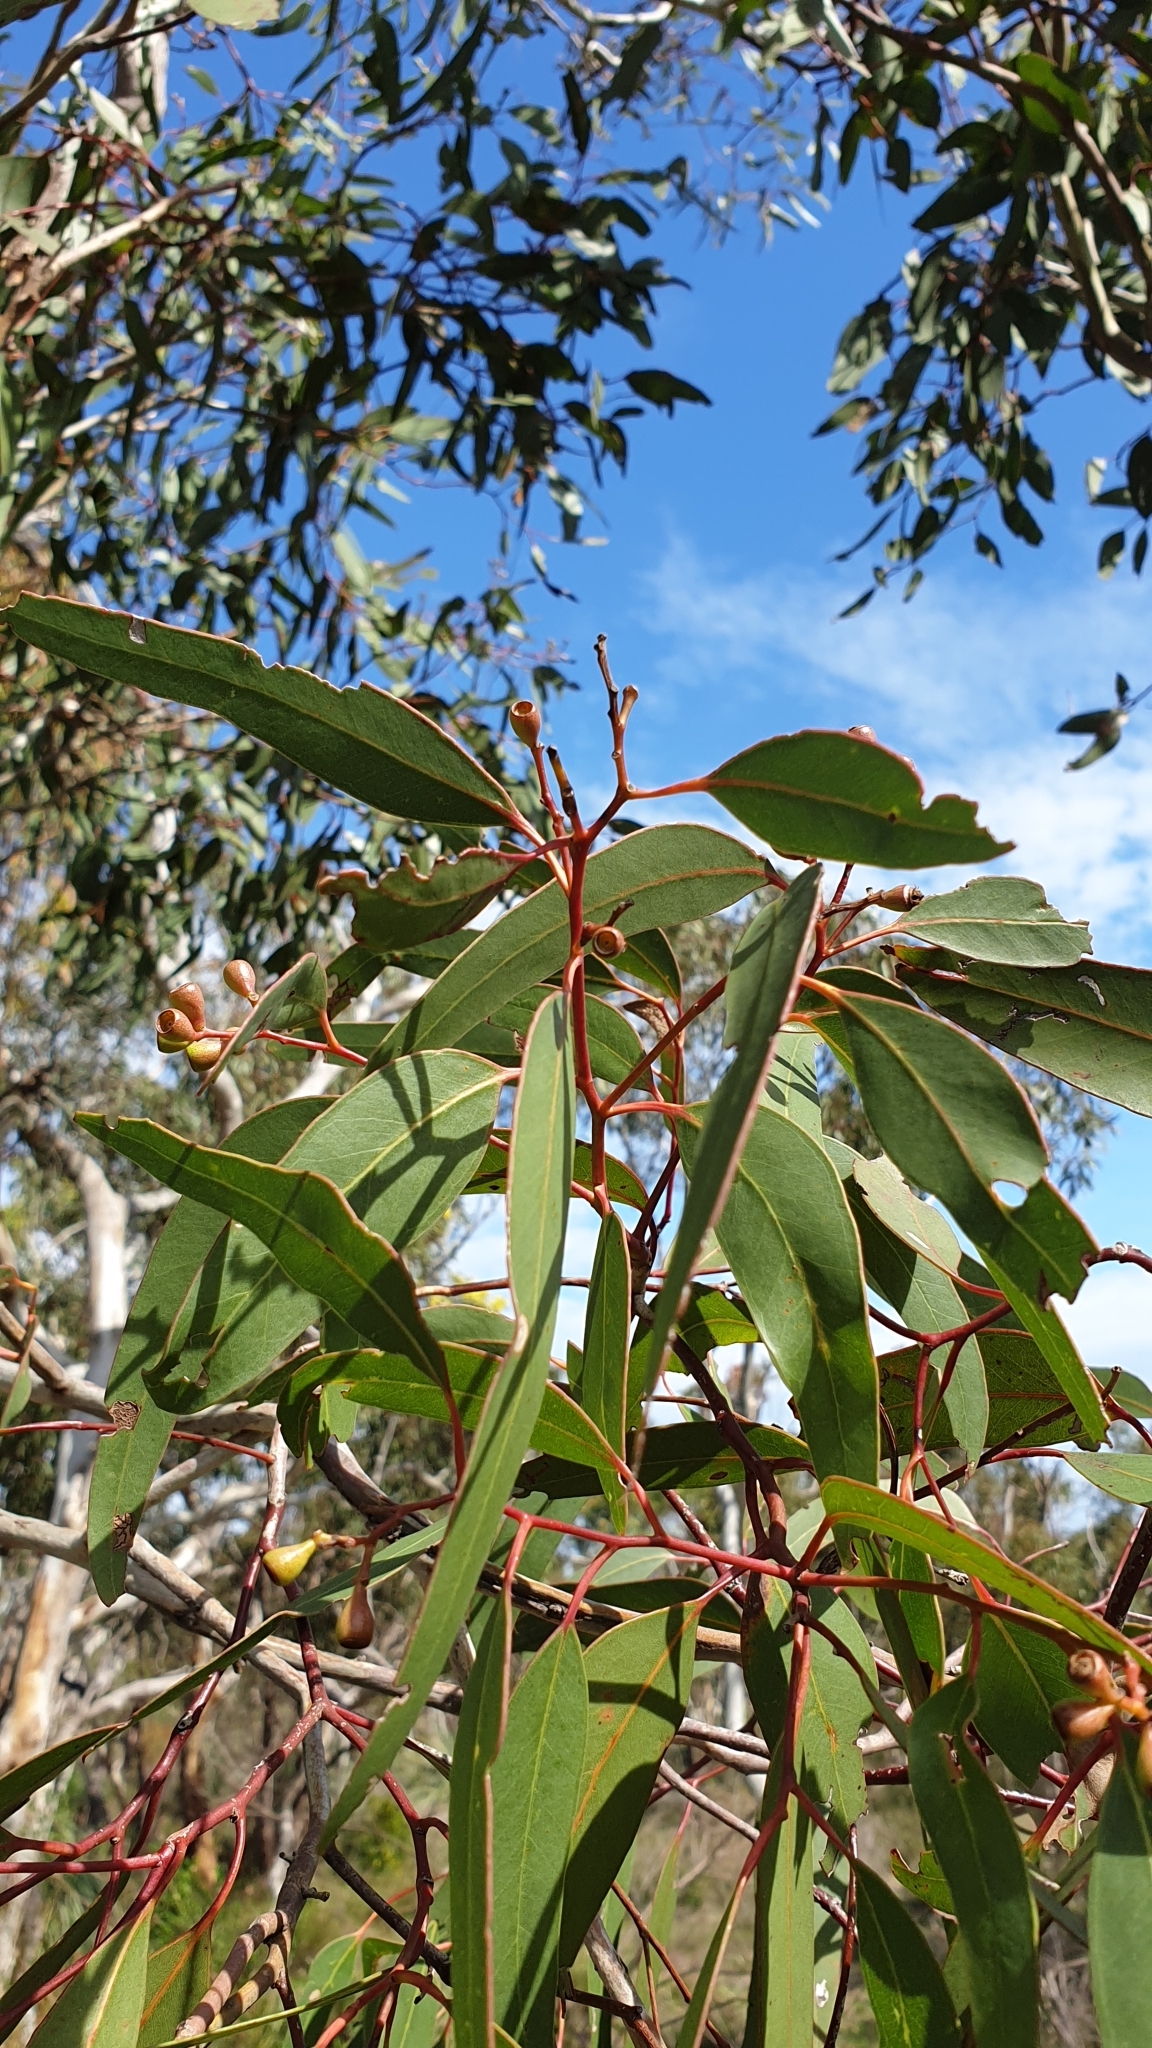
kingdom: Plantae
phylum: Tracheophyta
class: Magnoliopsida
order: Myrtales
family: Myrtaceae
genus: Eucalyptus
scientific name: Eucalyptus fasciculosa
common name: Hill gum
